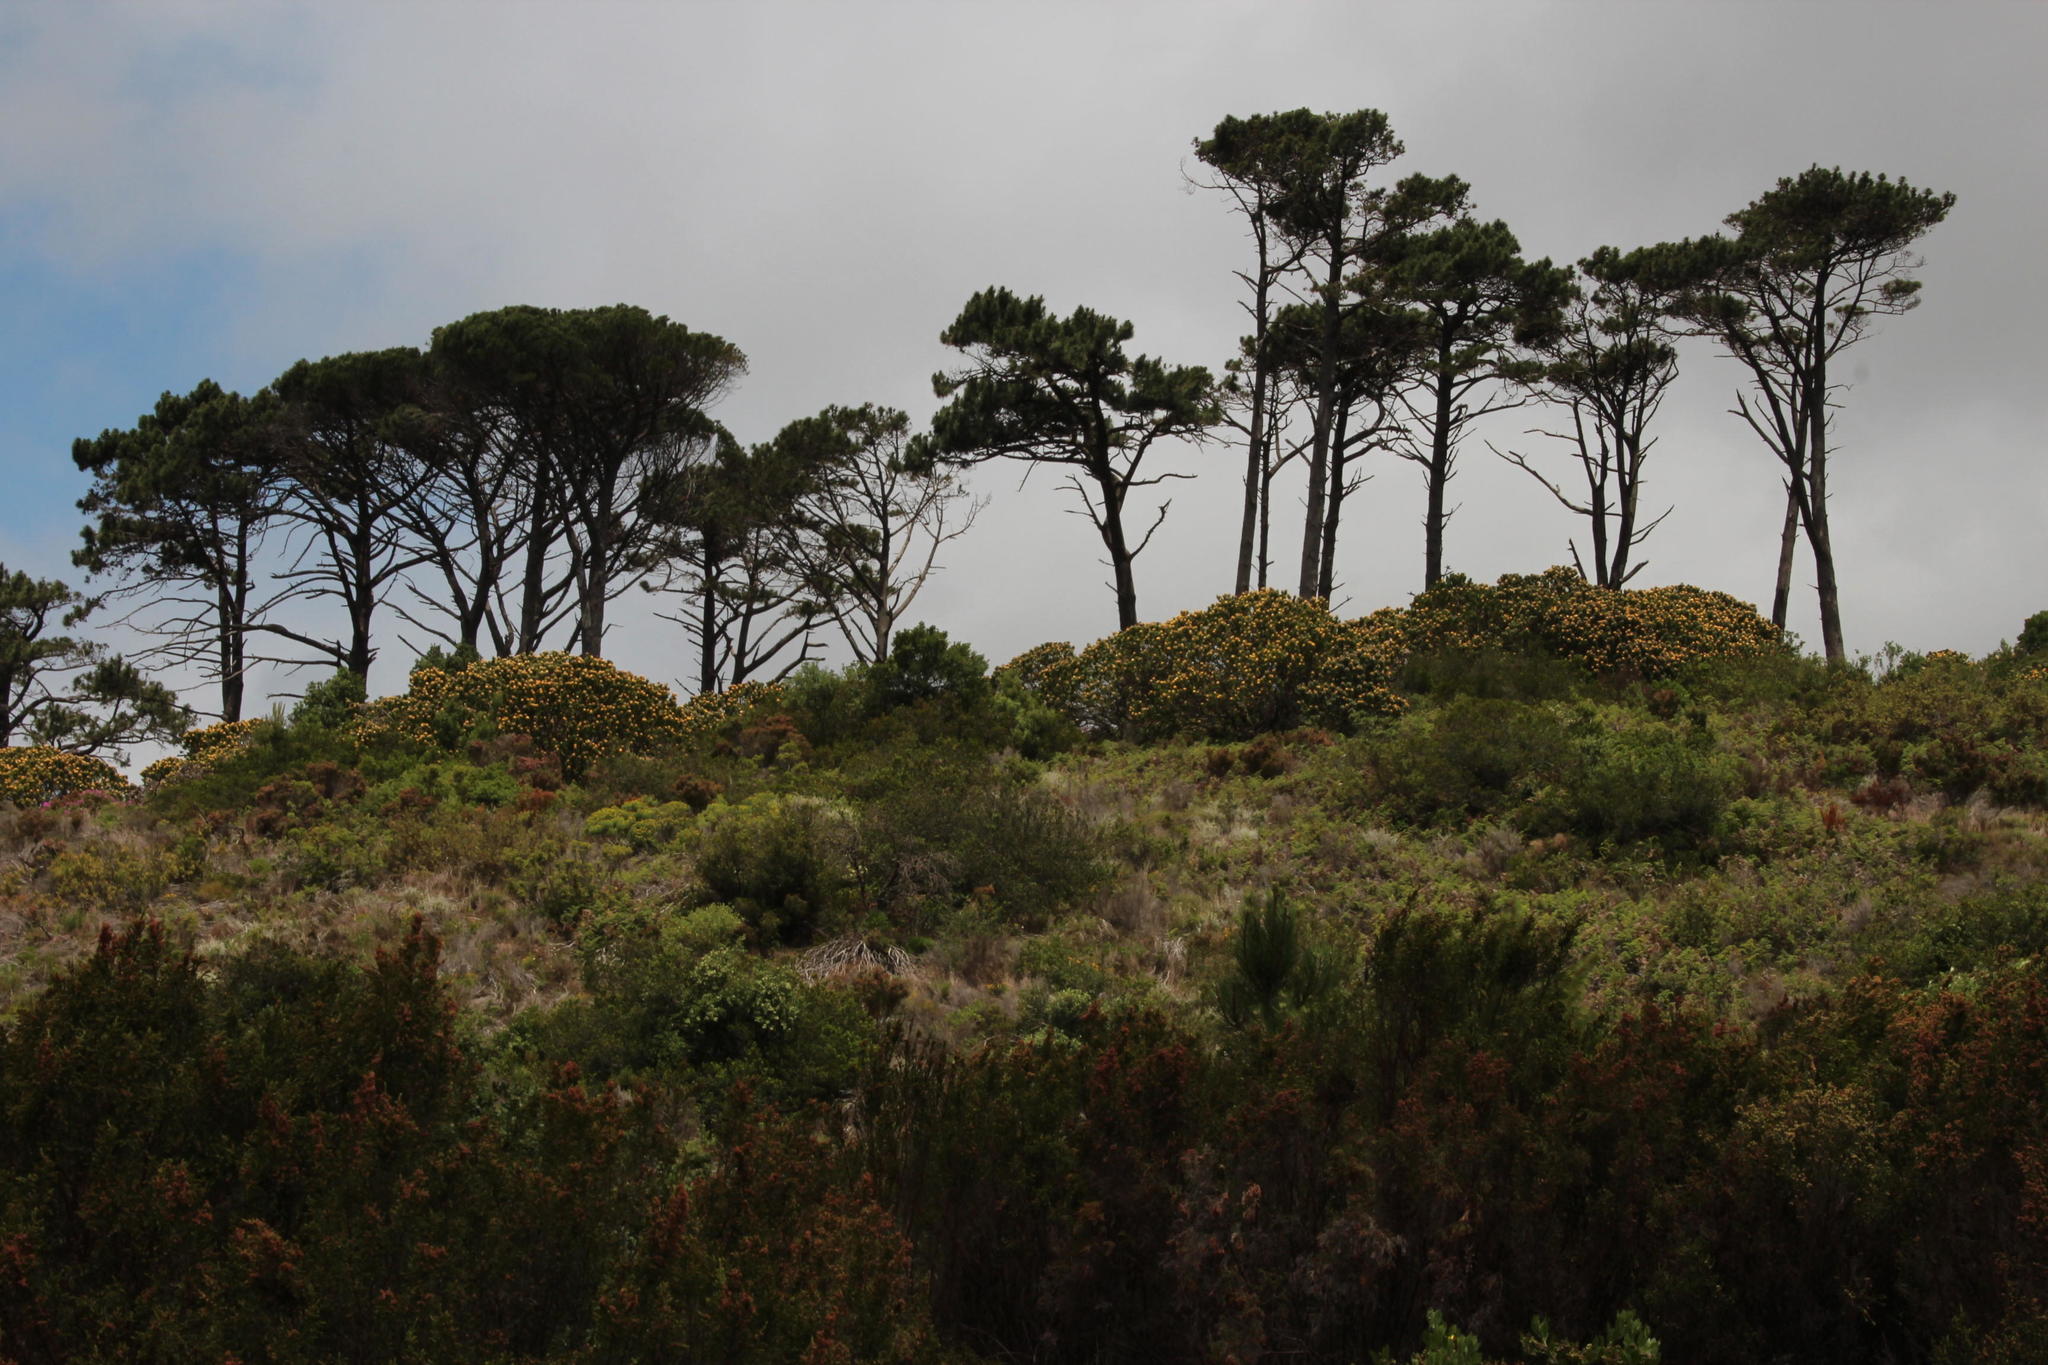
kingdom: Plantae
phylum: Tracheophyta
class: Pinopsida
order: Pinales
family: Pinaceae
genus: Pinus
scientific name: Pinus pinea
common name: Italian stone pine
